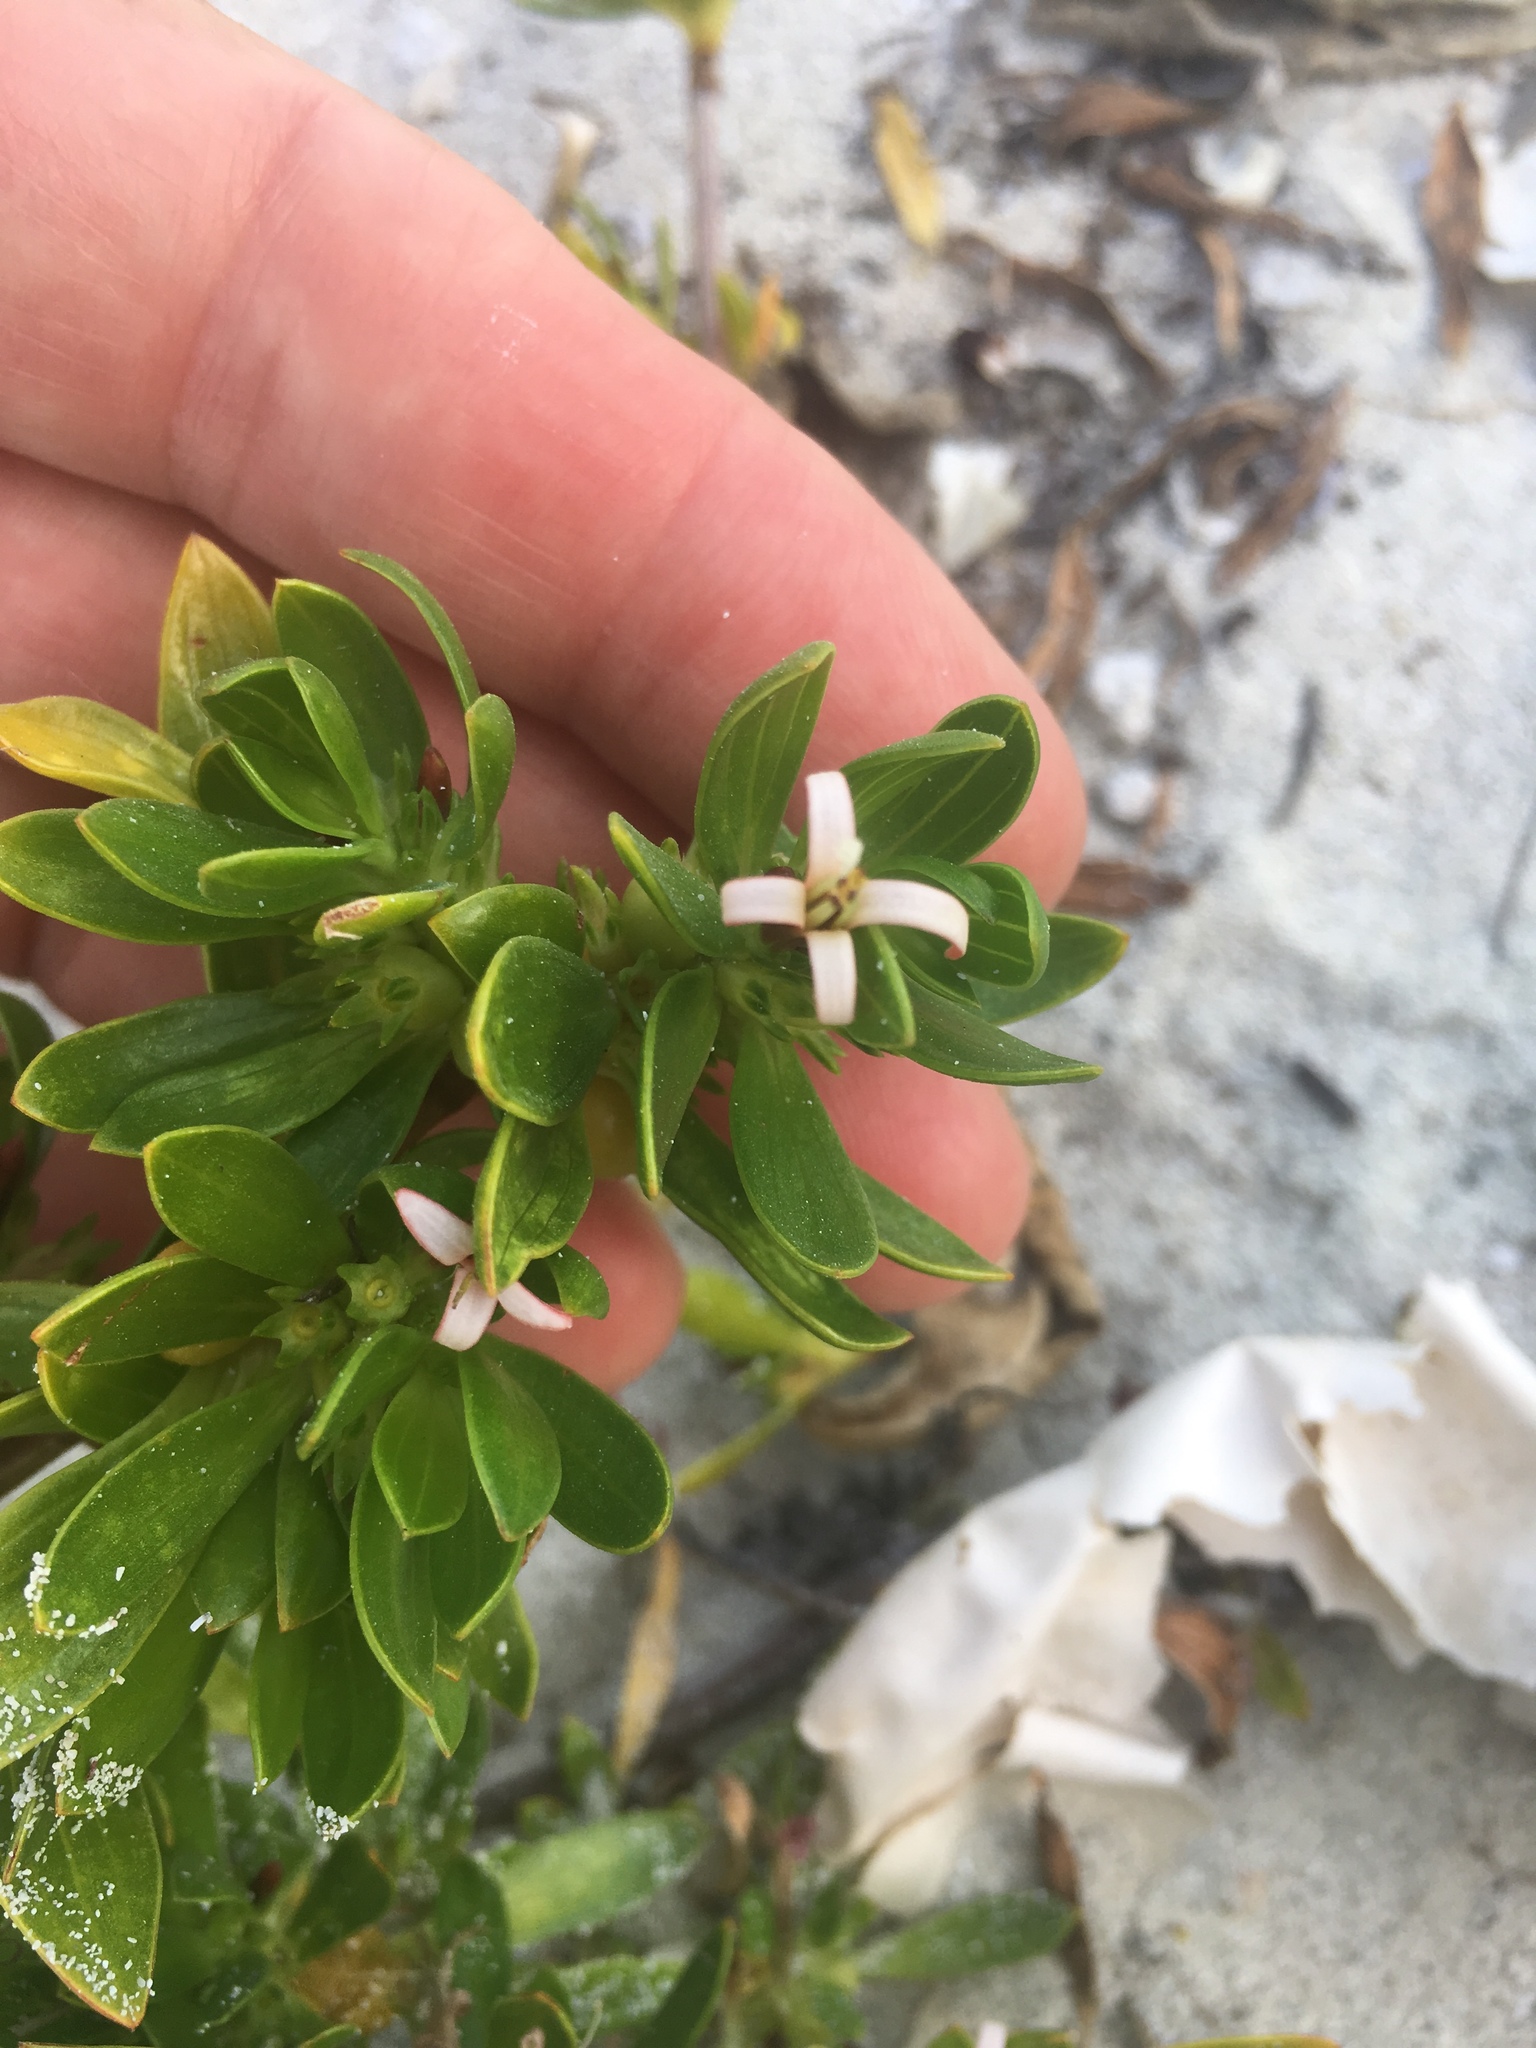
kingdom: Plantae
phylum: Tracheophyta
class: Magnoliopsida
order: Gentianales
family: Rubiaceae
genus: Ernodea
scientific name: Ernodea littoralis
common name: Beach creeper
